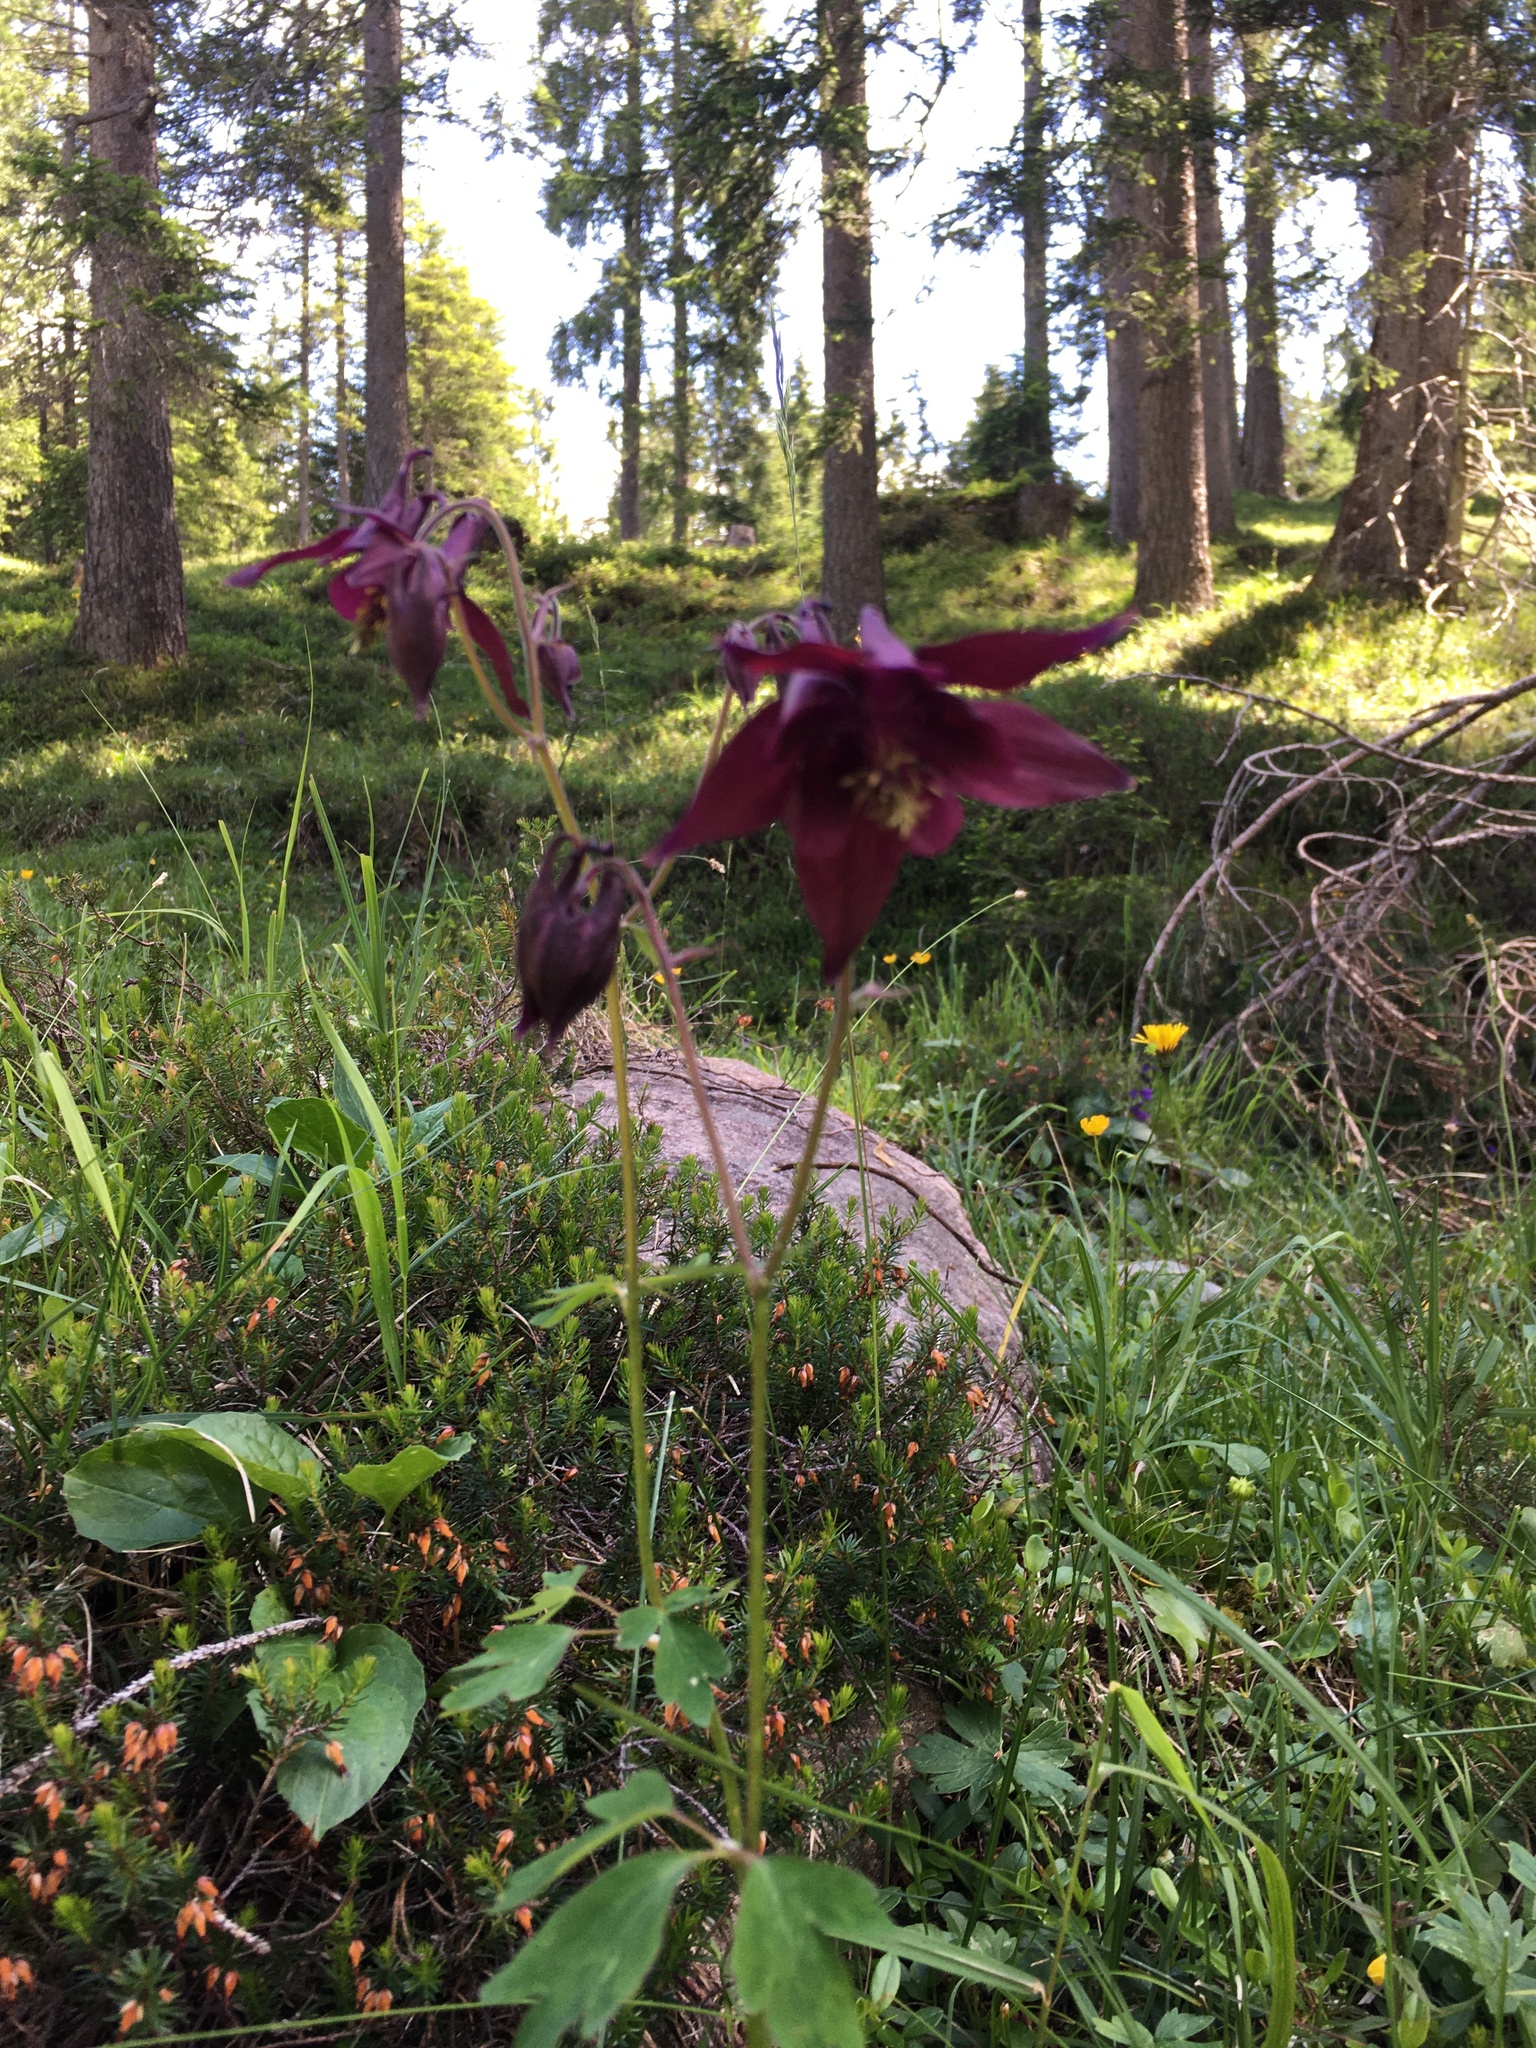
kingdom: Plantae
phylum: Tracheophyta
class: Magnoliopsida
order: Ranunculales
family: Ranunculaceae
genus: Aquilegia
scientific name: Aquilegia atrata
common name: Dark columbine
